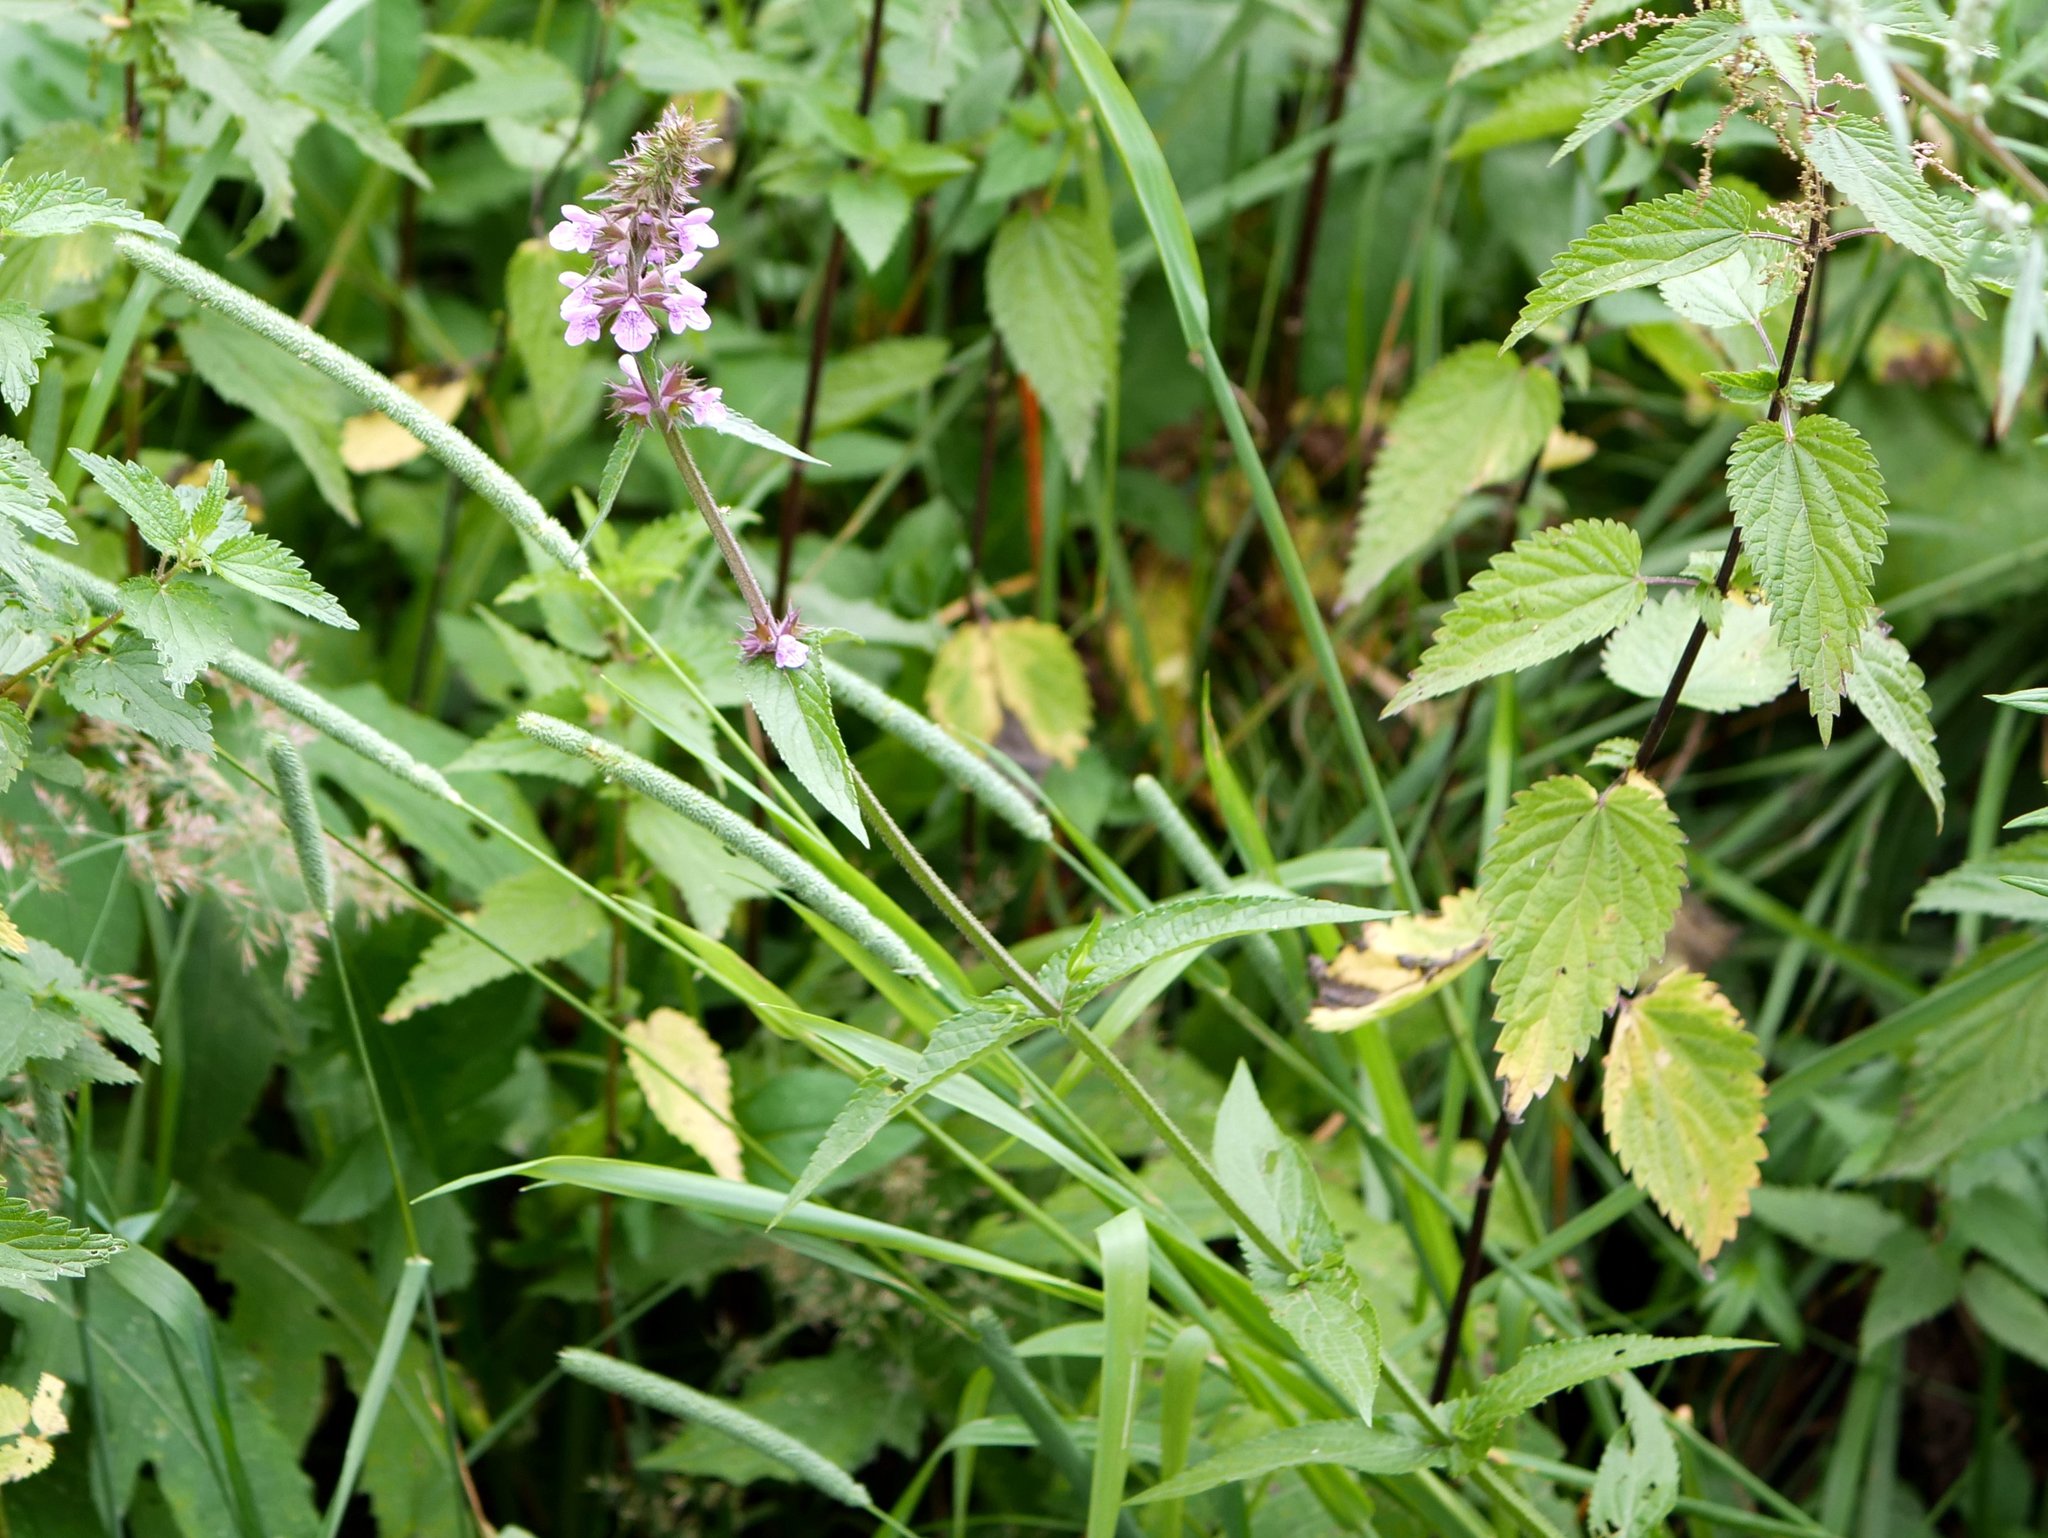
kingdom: Plantae
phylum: Tracheophyta
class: Magnoliopsida
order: Lamiales
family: Lamiaceae
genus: Stachys
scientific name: Stachys palustris
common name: Marsh woundwort
